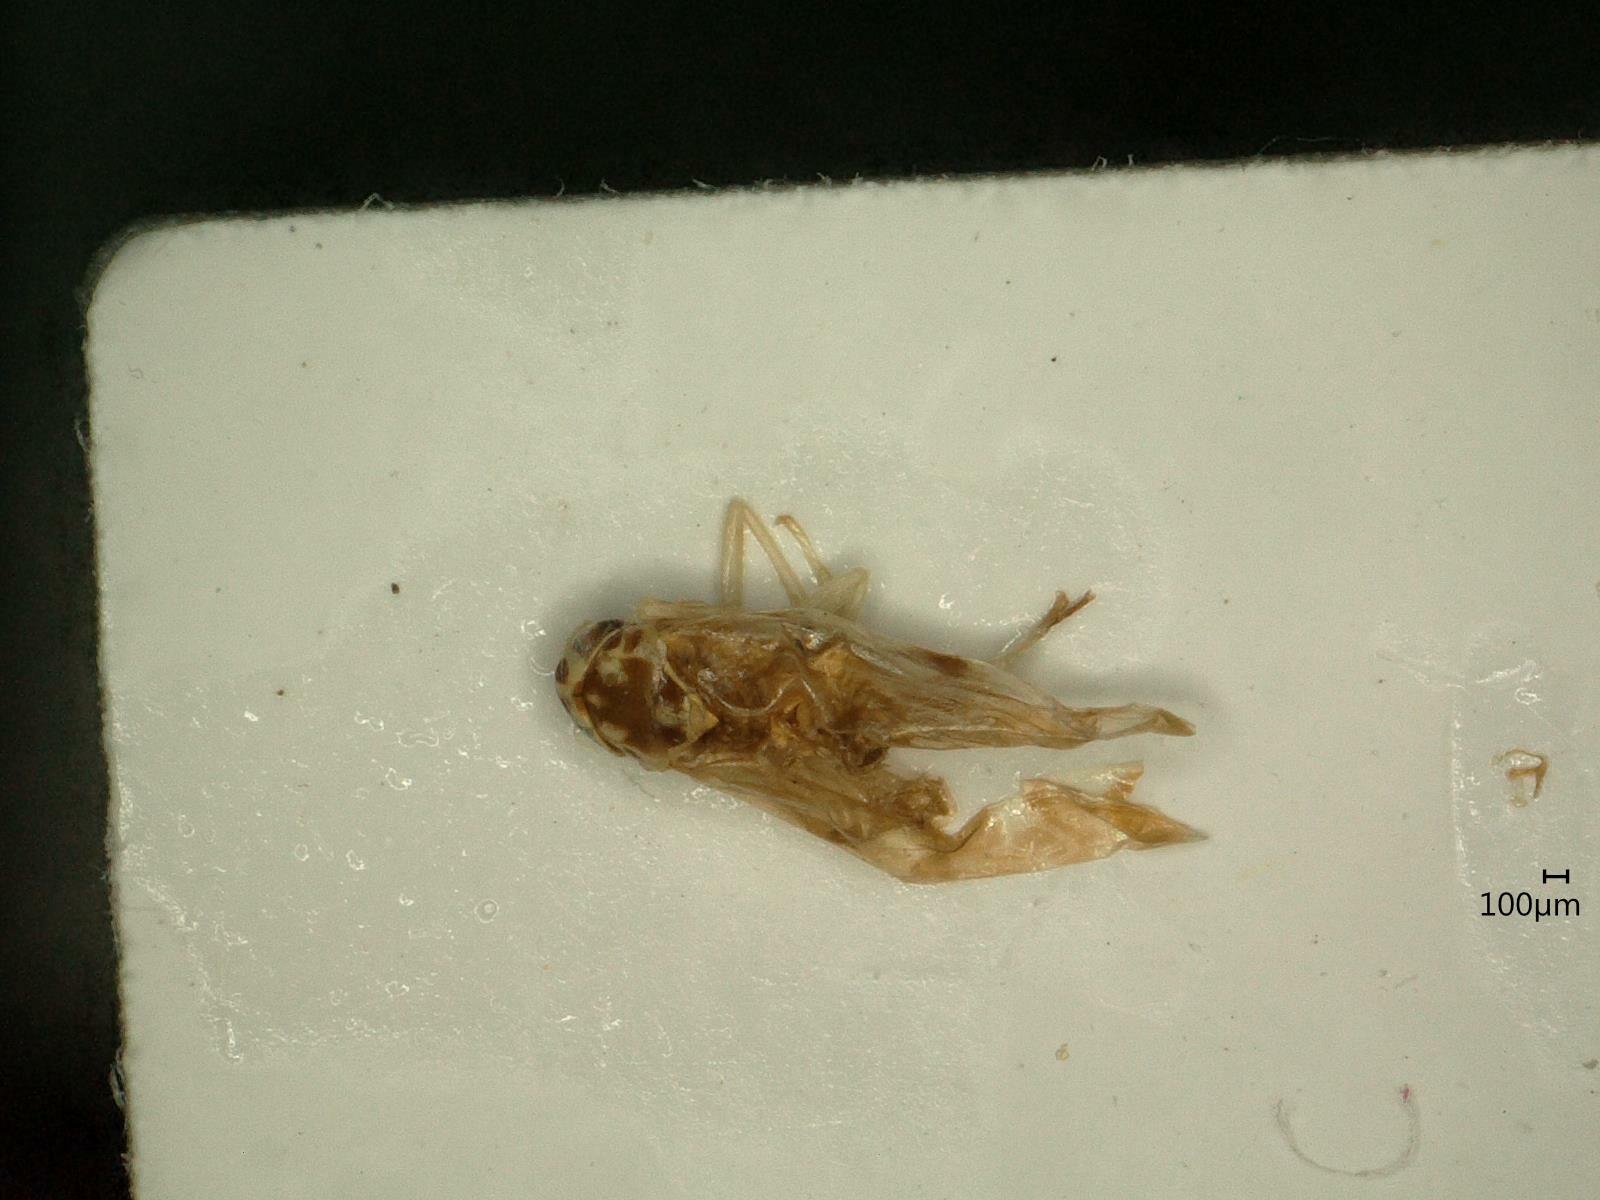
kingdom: Animalia
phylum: Arthropoda
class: Insecta
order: Hemiptera
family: Cicadellidae
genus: Eupteryx
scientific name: Eupteryx calcarata
